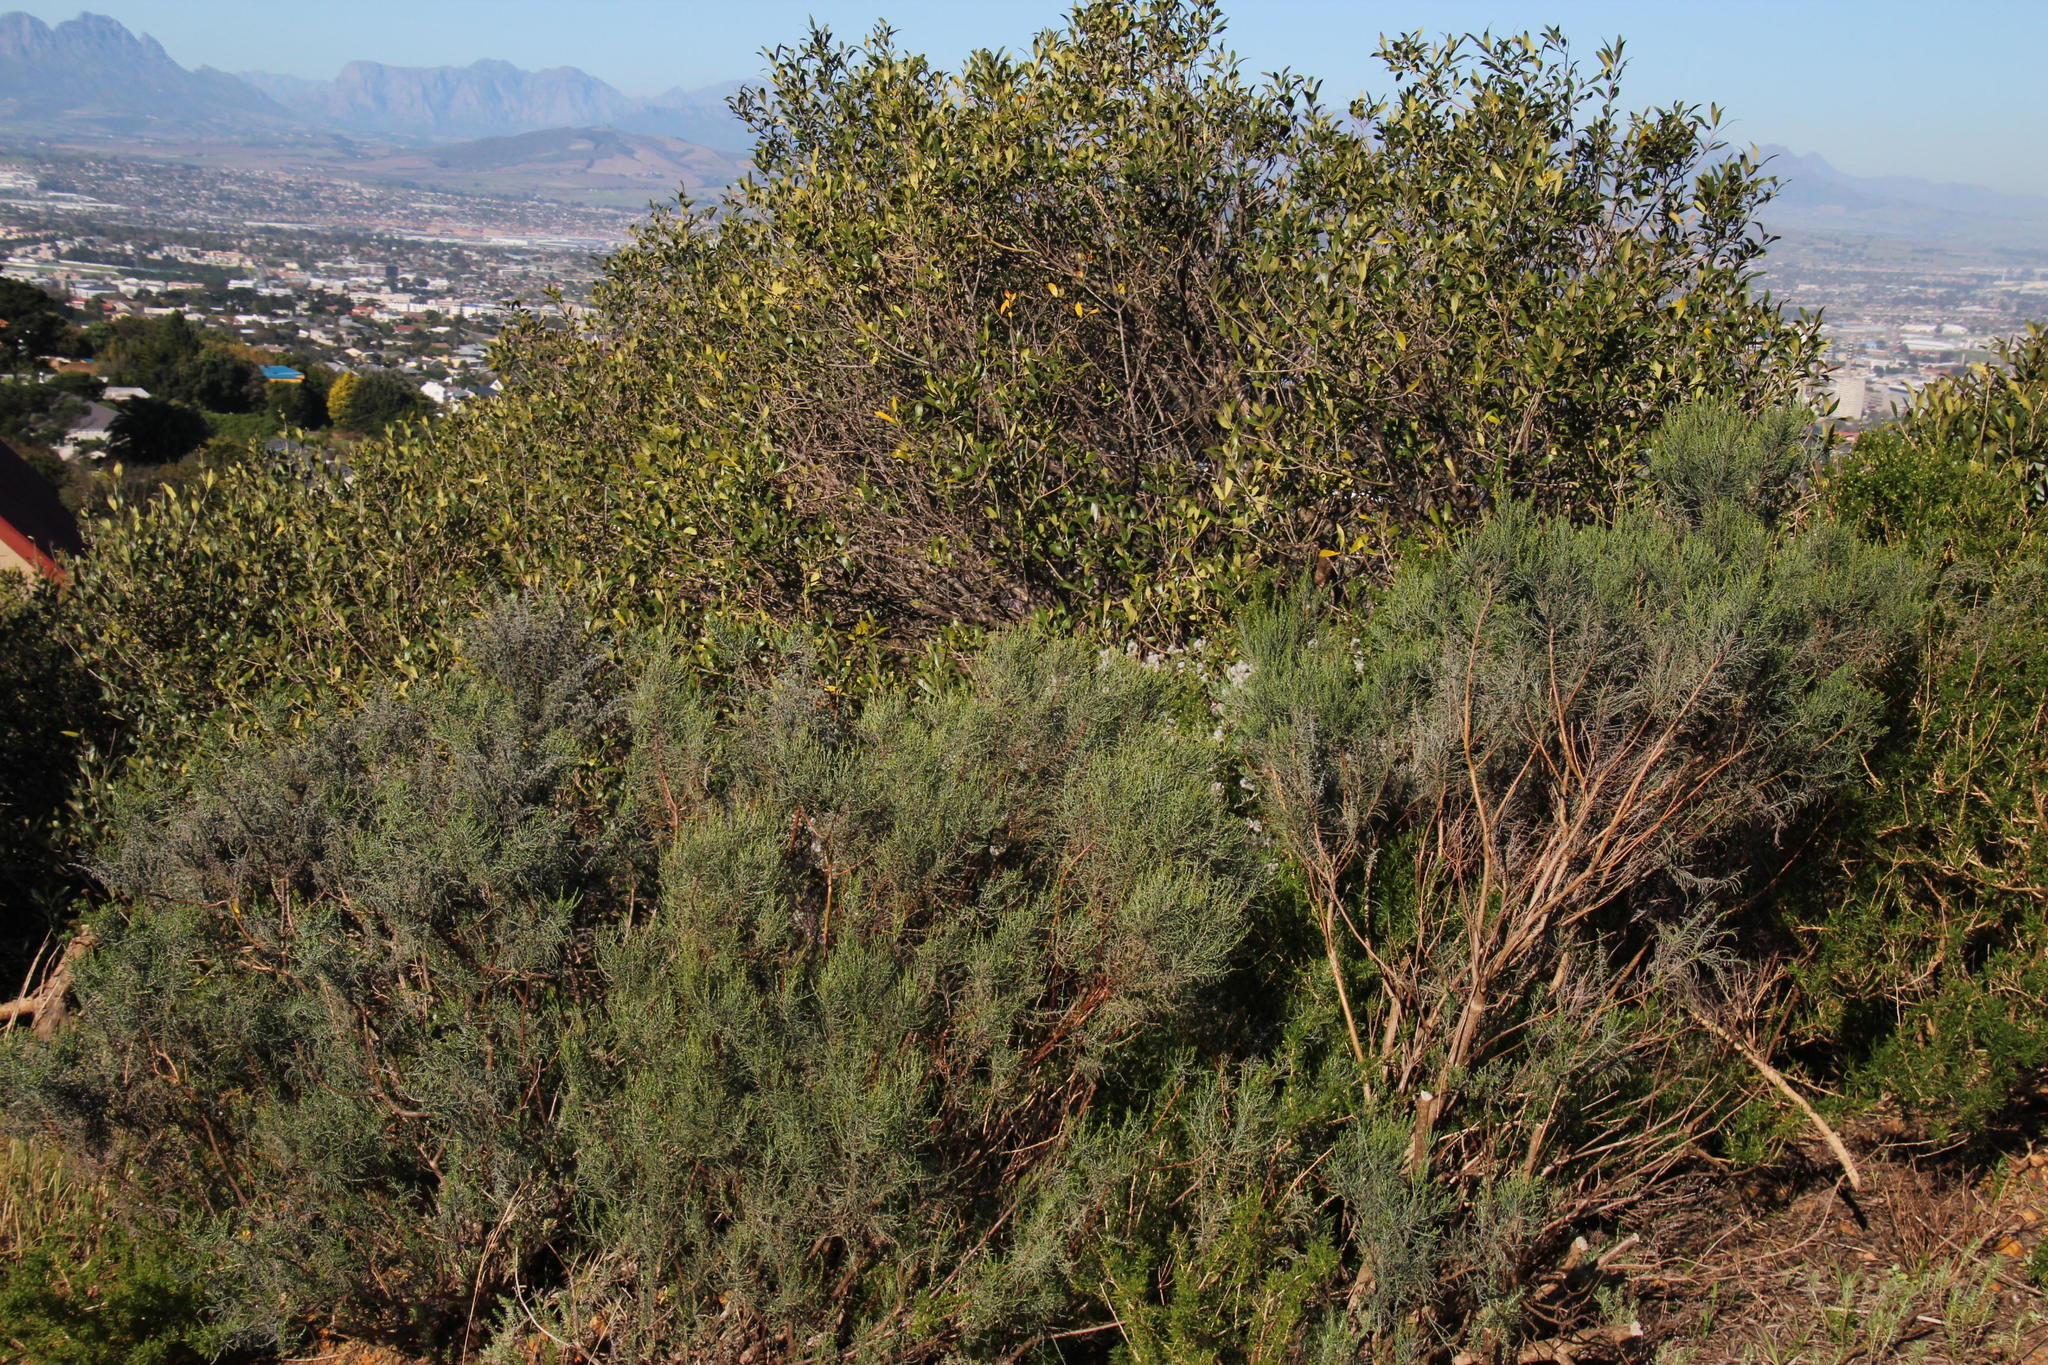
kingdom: Plantae
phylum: Tracheophyta
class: Magnoliopsida
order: Asterales
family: Asteraceae
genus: Dicerothamnus
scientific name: Dicerothamnus rhinocerotis
